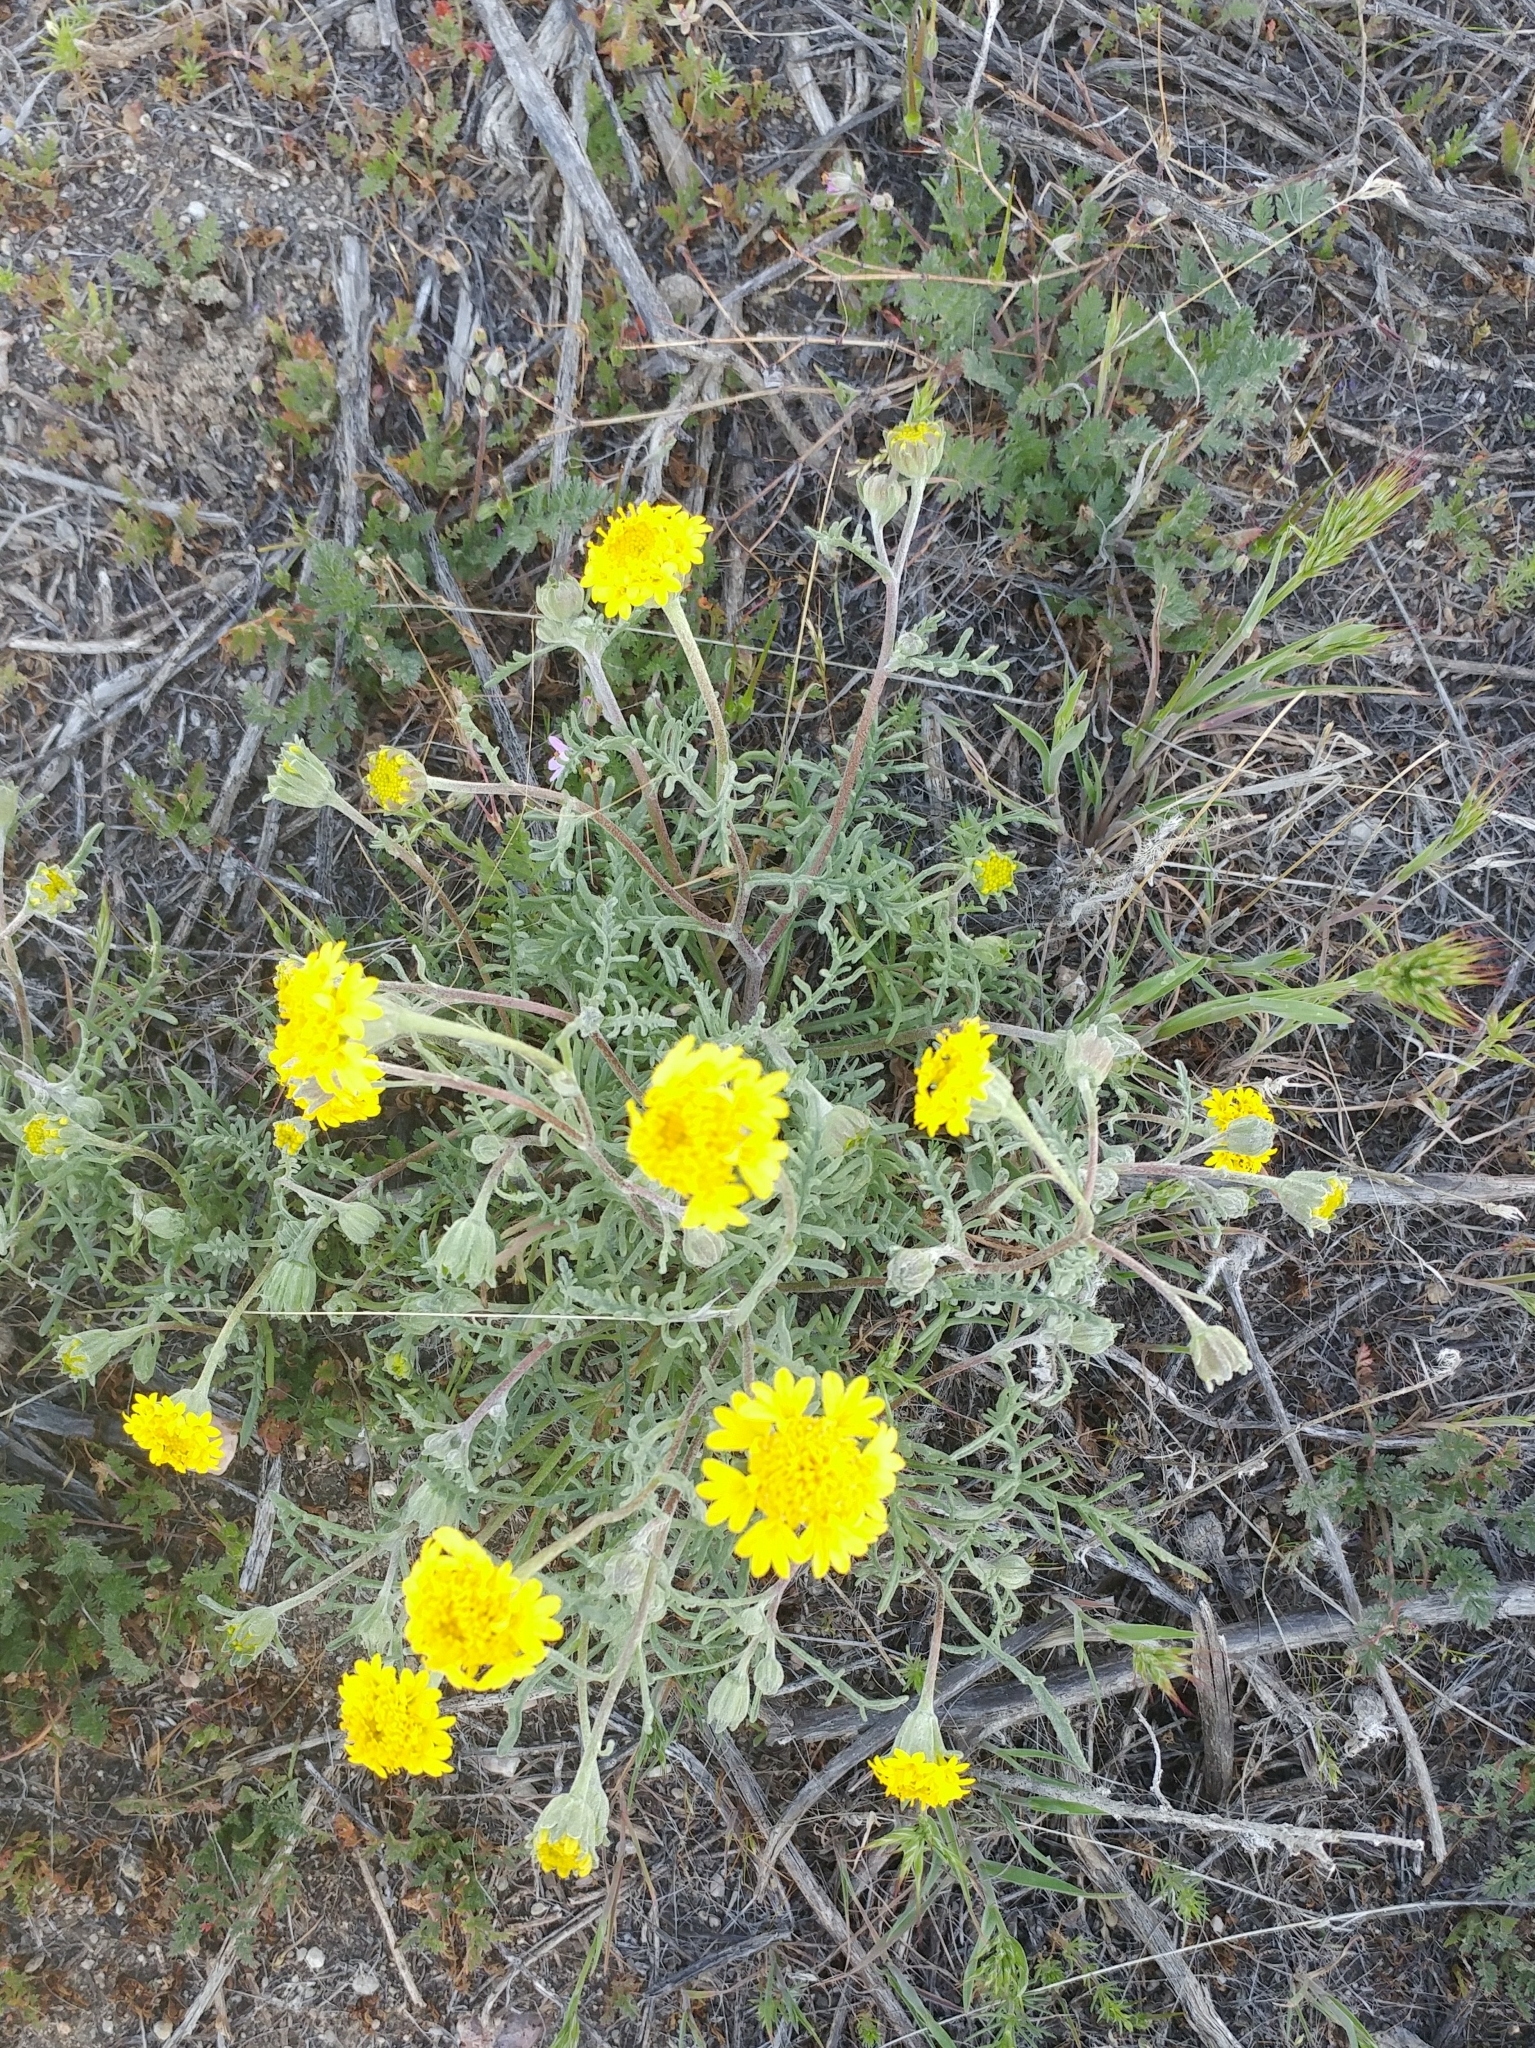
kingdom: Plantae
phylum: Tracheophyta
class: Magnoliopsida
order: Asterales
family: Asteraceae
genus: Chaenactis
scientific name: Chaenactis glabriuscula
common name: Yellow pincushion
